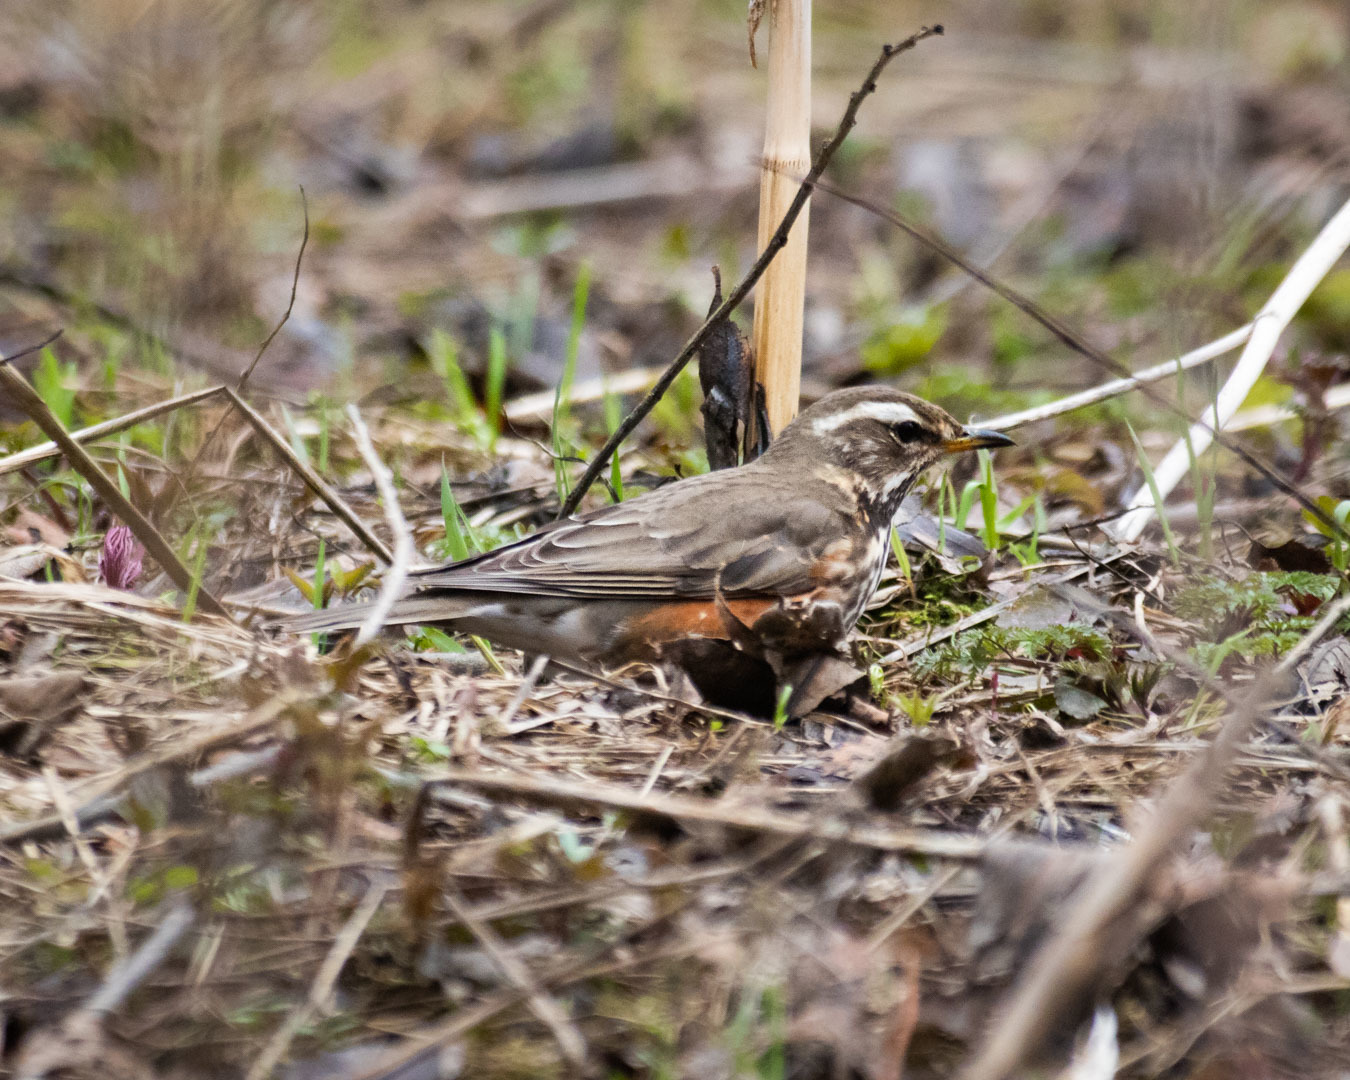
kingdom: Animalia
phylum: Chordata
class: Aves
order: Passeriformes
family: Turdidae
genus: Turdus
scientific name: Turdus iliacus
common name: Redwing
